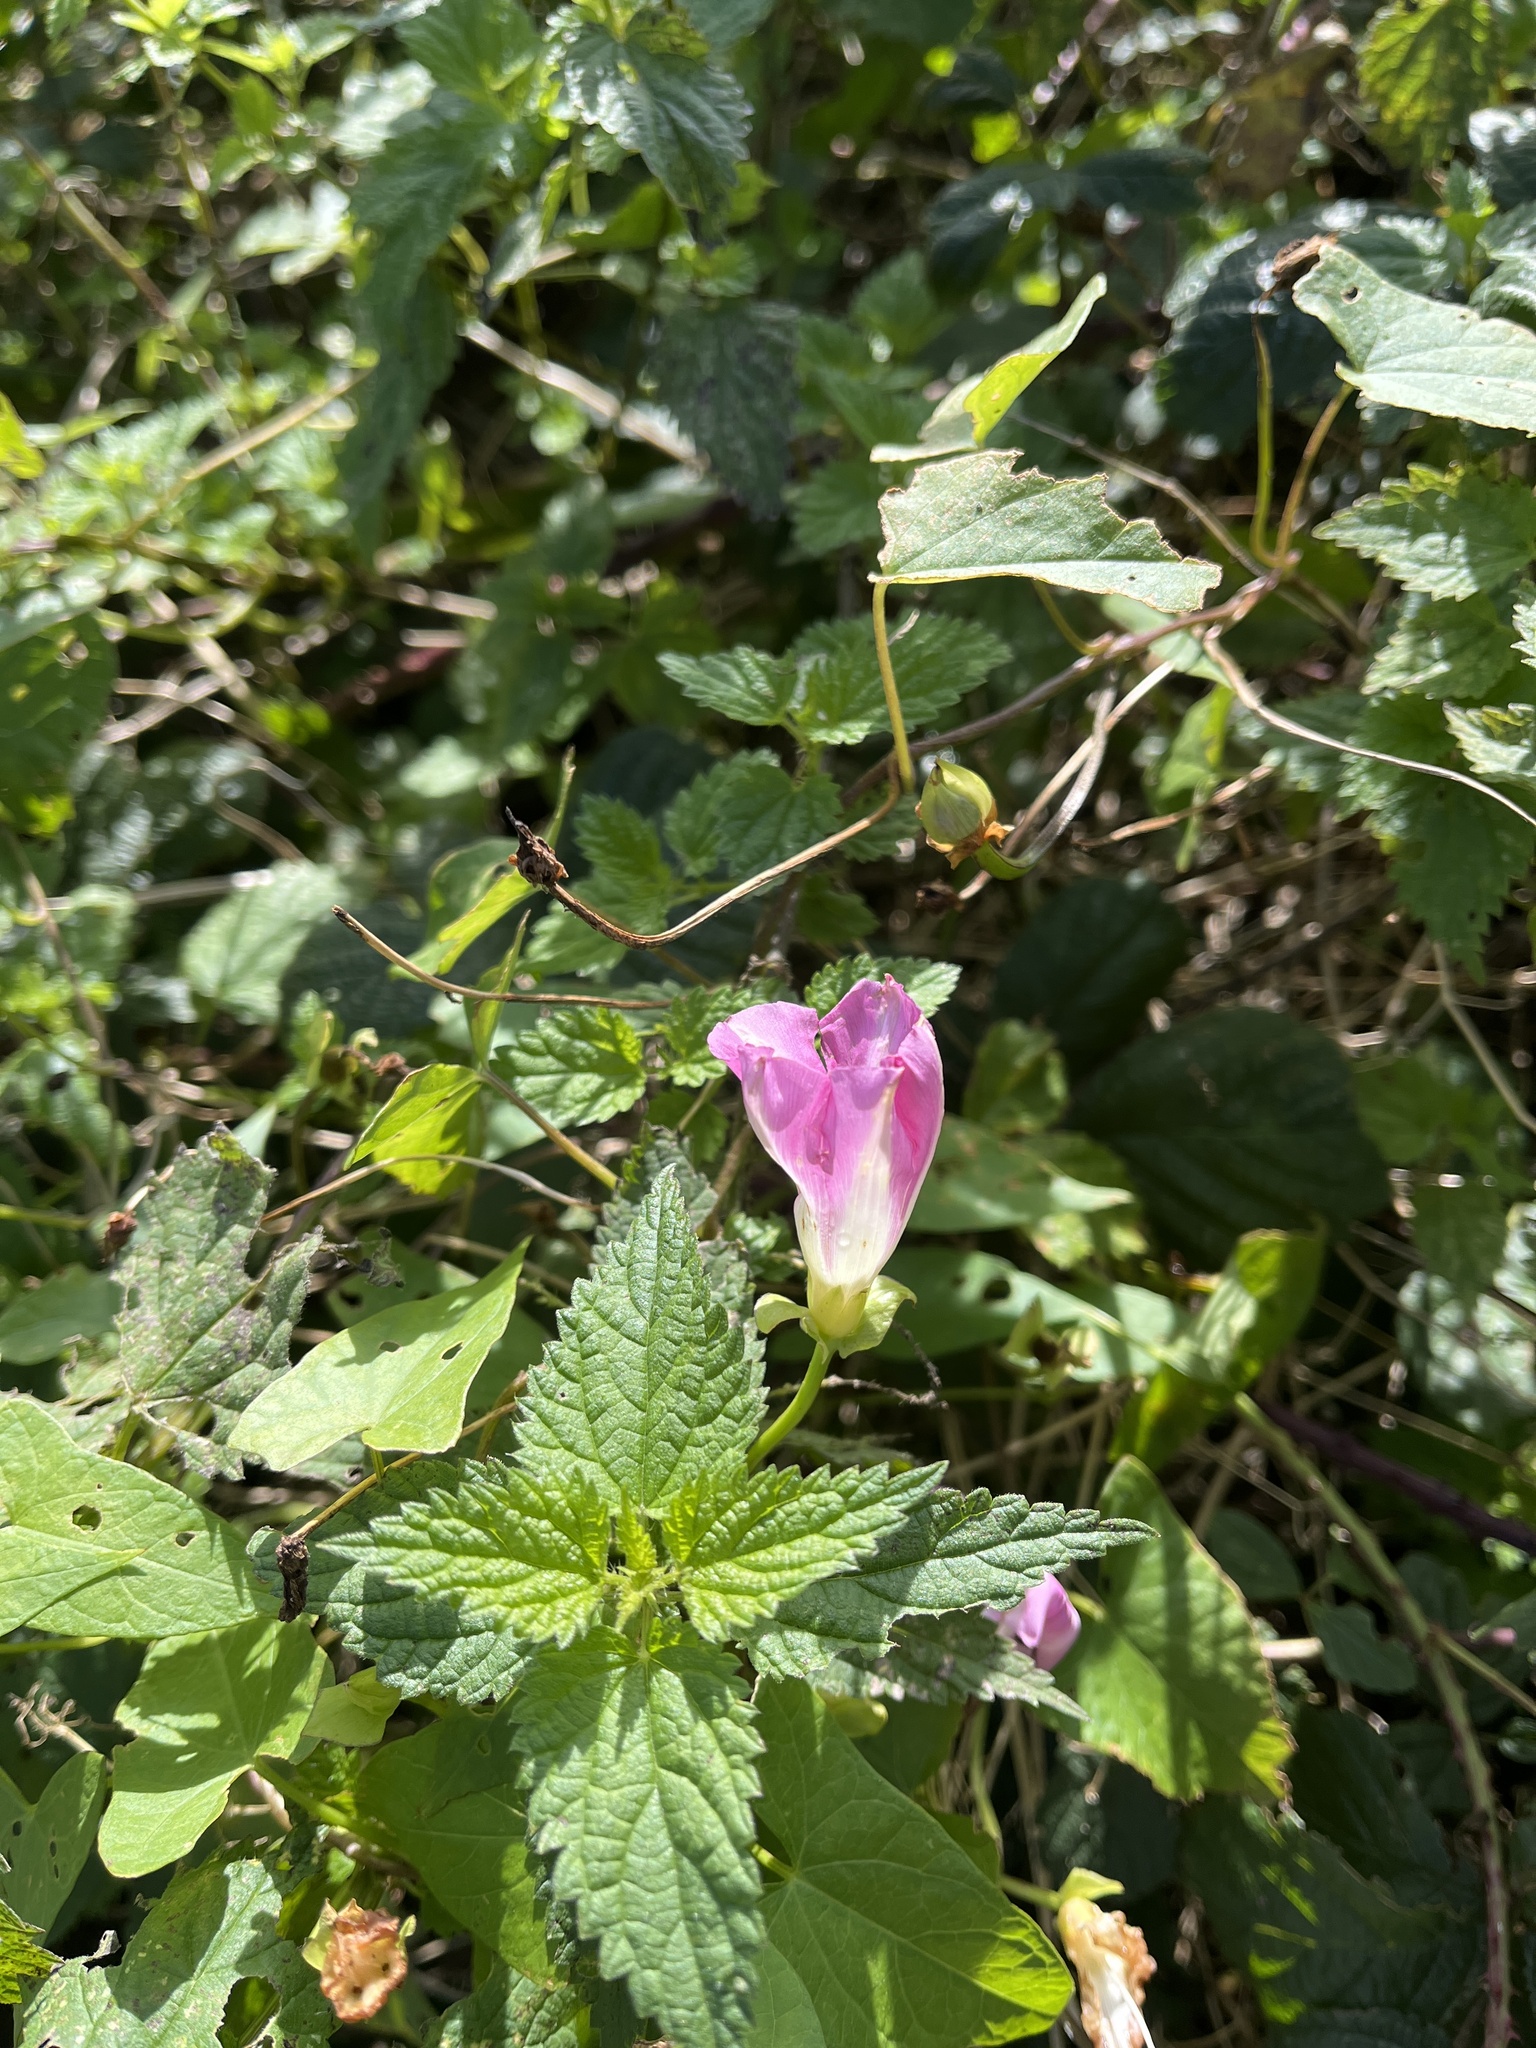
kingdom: Plantae
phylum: Tracheophyta
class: Magnoliopsida
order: Solanales
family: Convolvulaceae
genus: Convolvulus
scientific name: Convolvulus arvensis
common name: Field bindweed
